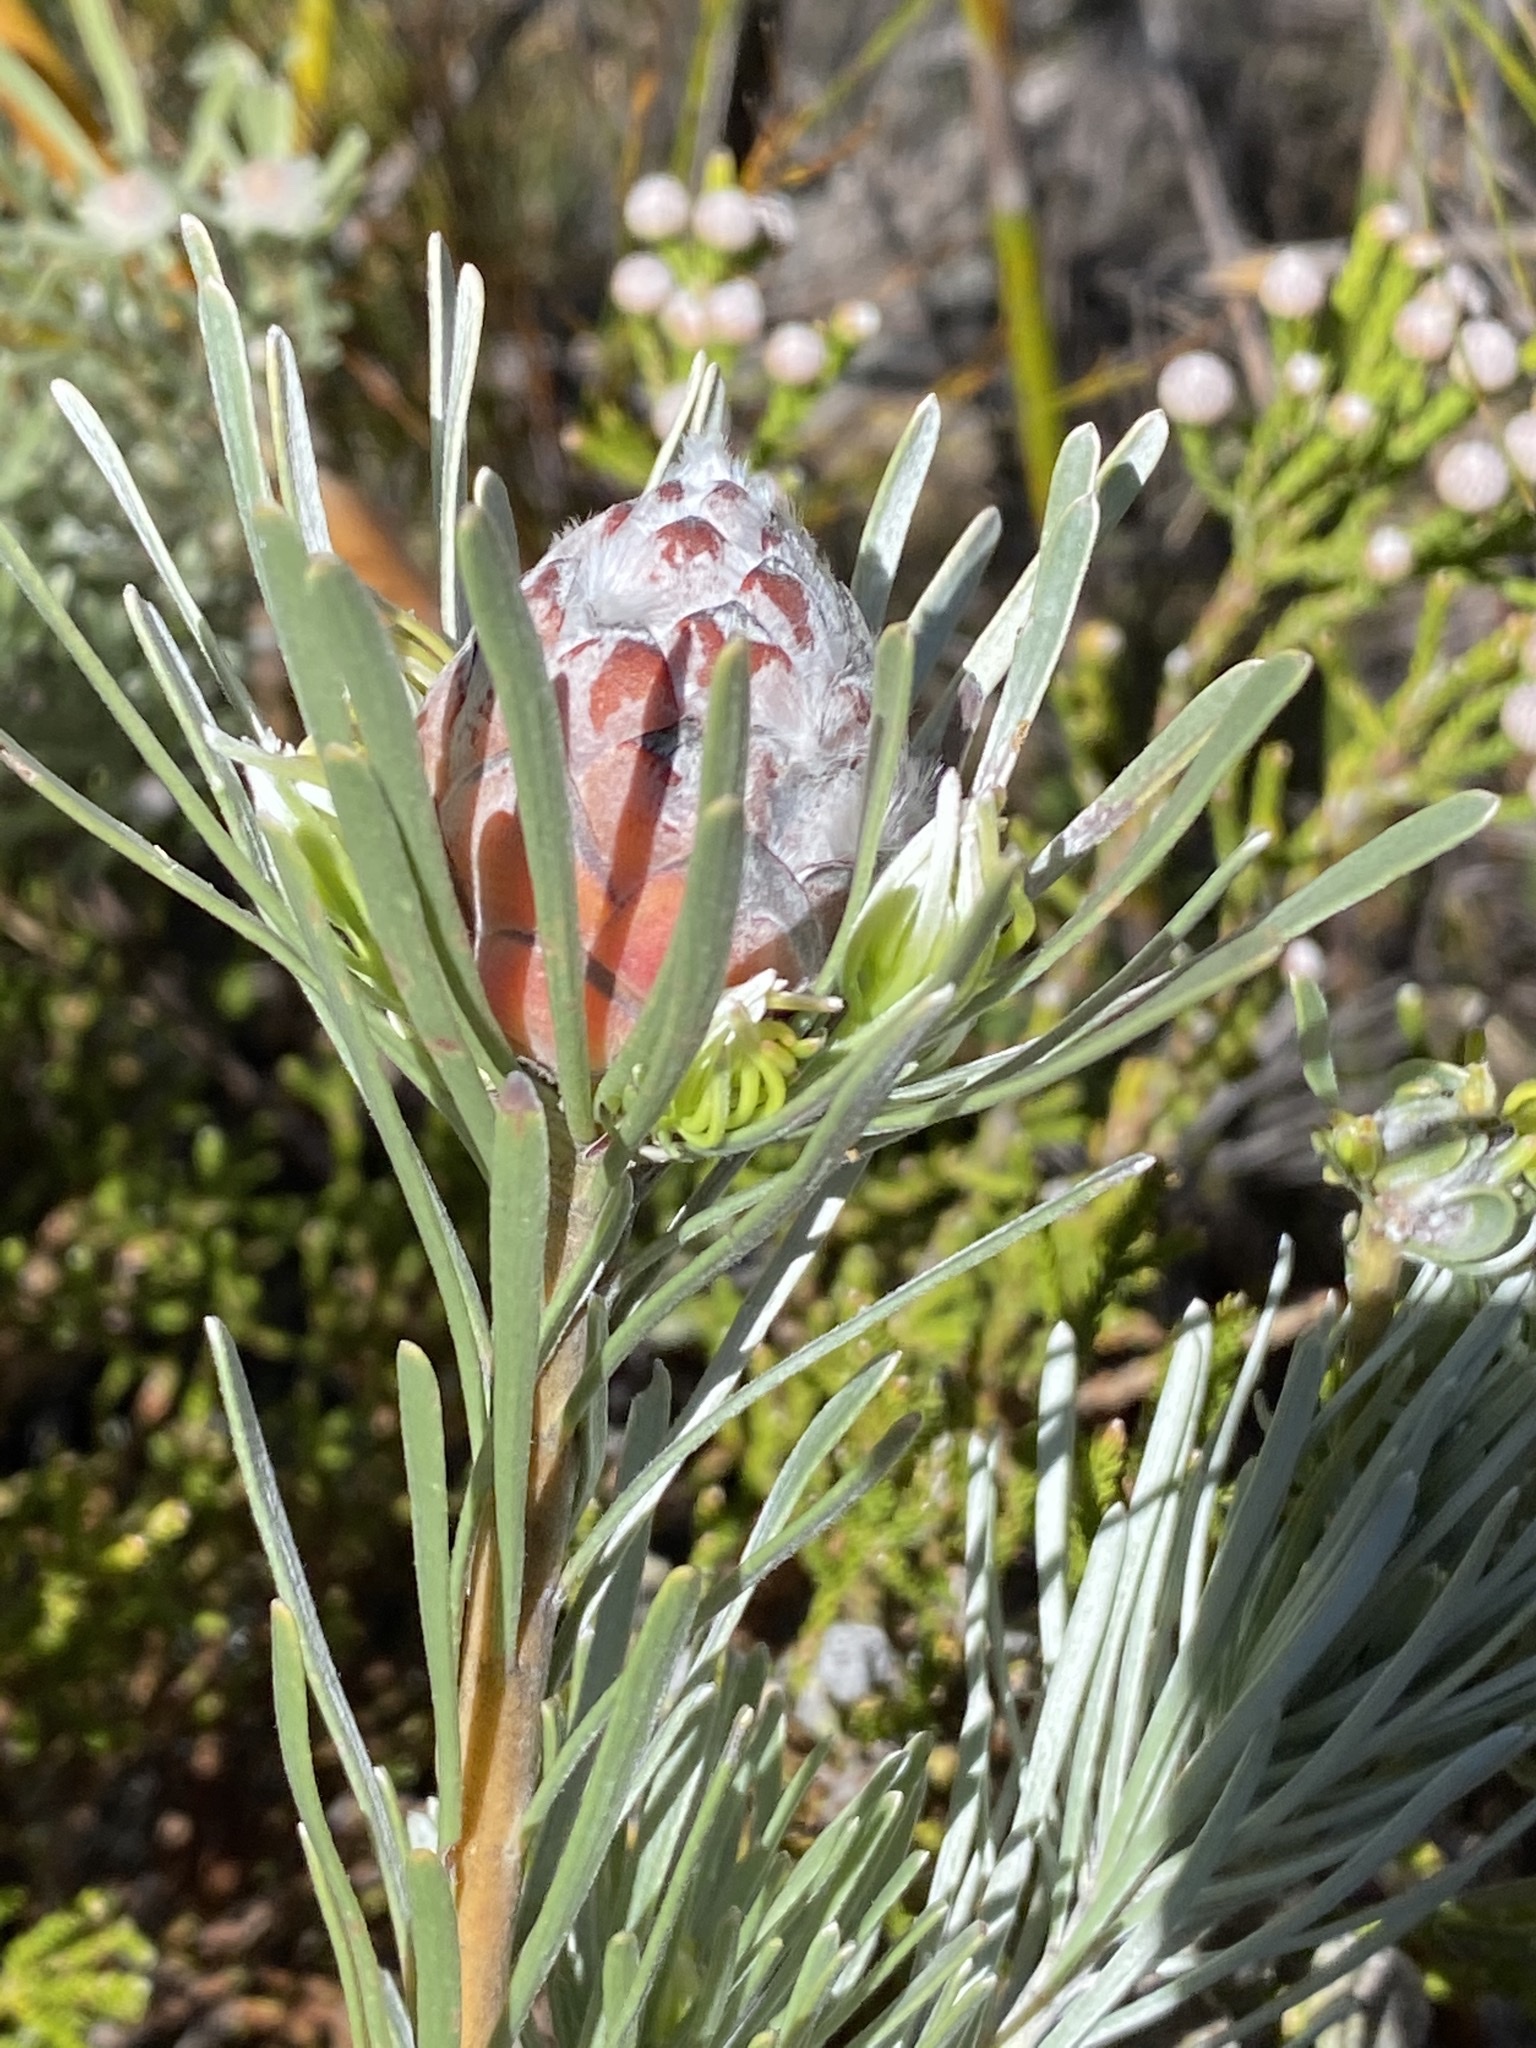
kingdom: Plantae
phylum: Tracheophyta
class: Magnoliopsida
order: Proteales
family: Proteaceae
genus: Leucadendron
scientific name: Leucadendron album
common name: Linear-leaf conebush
